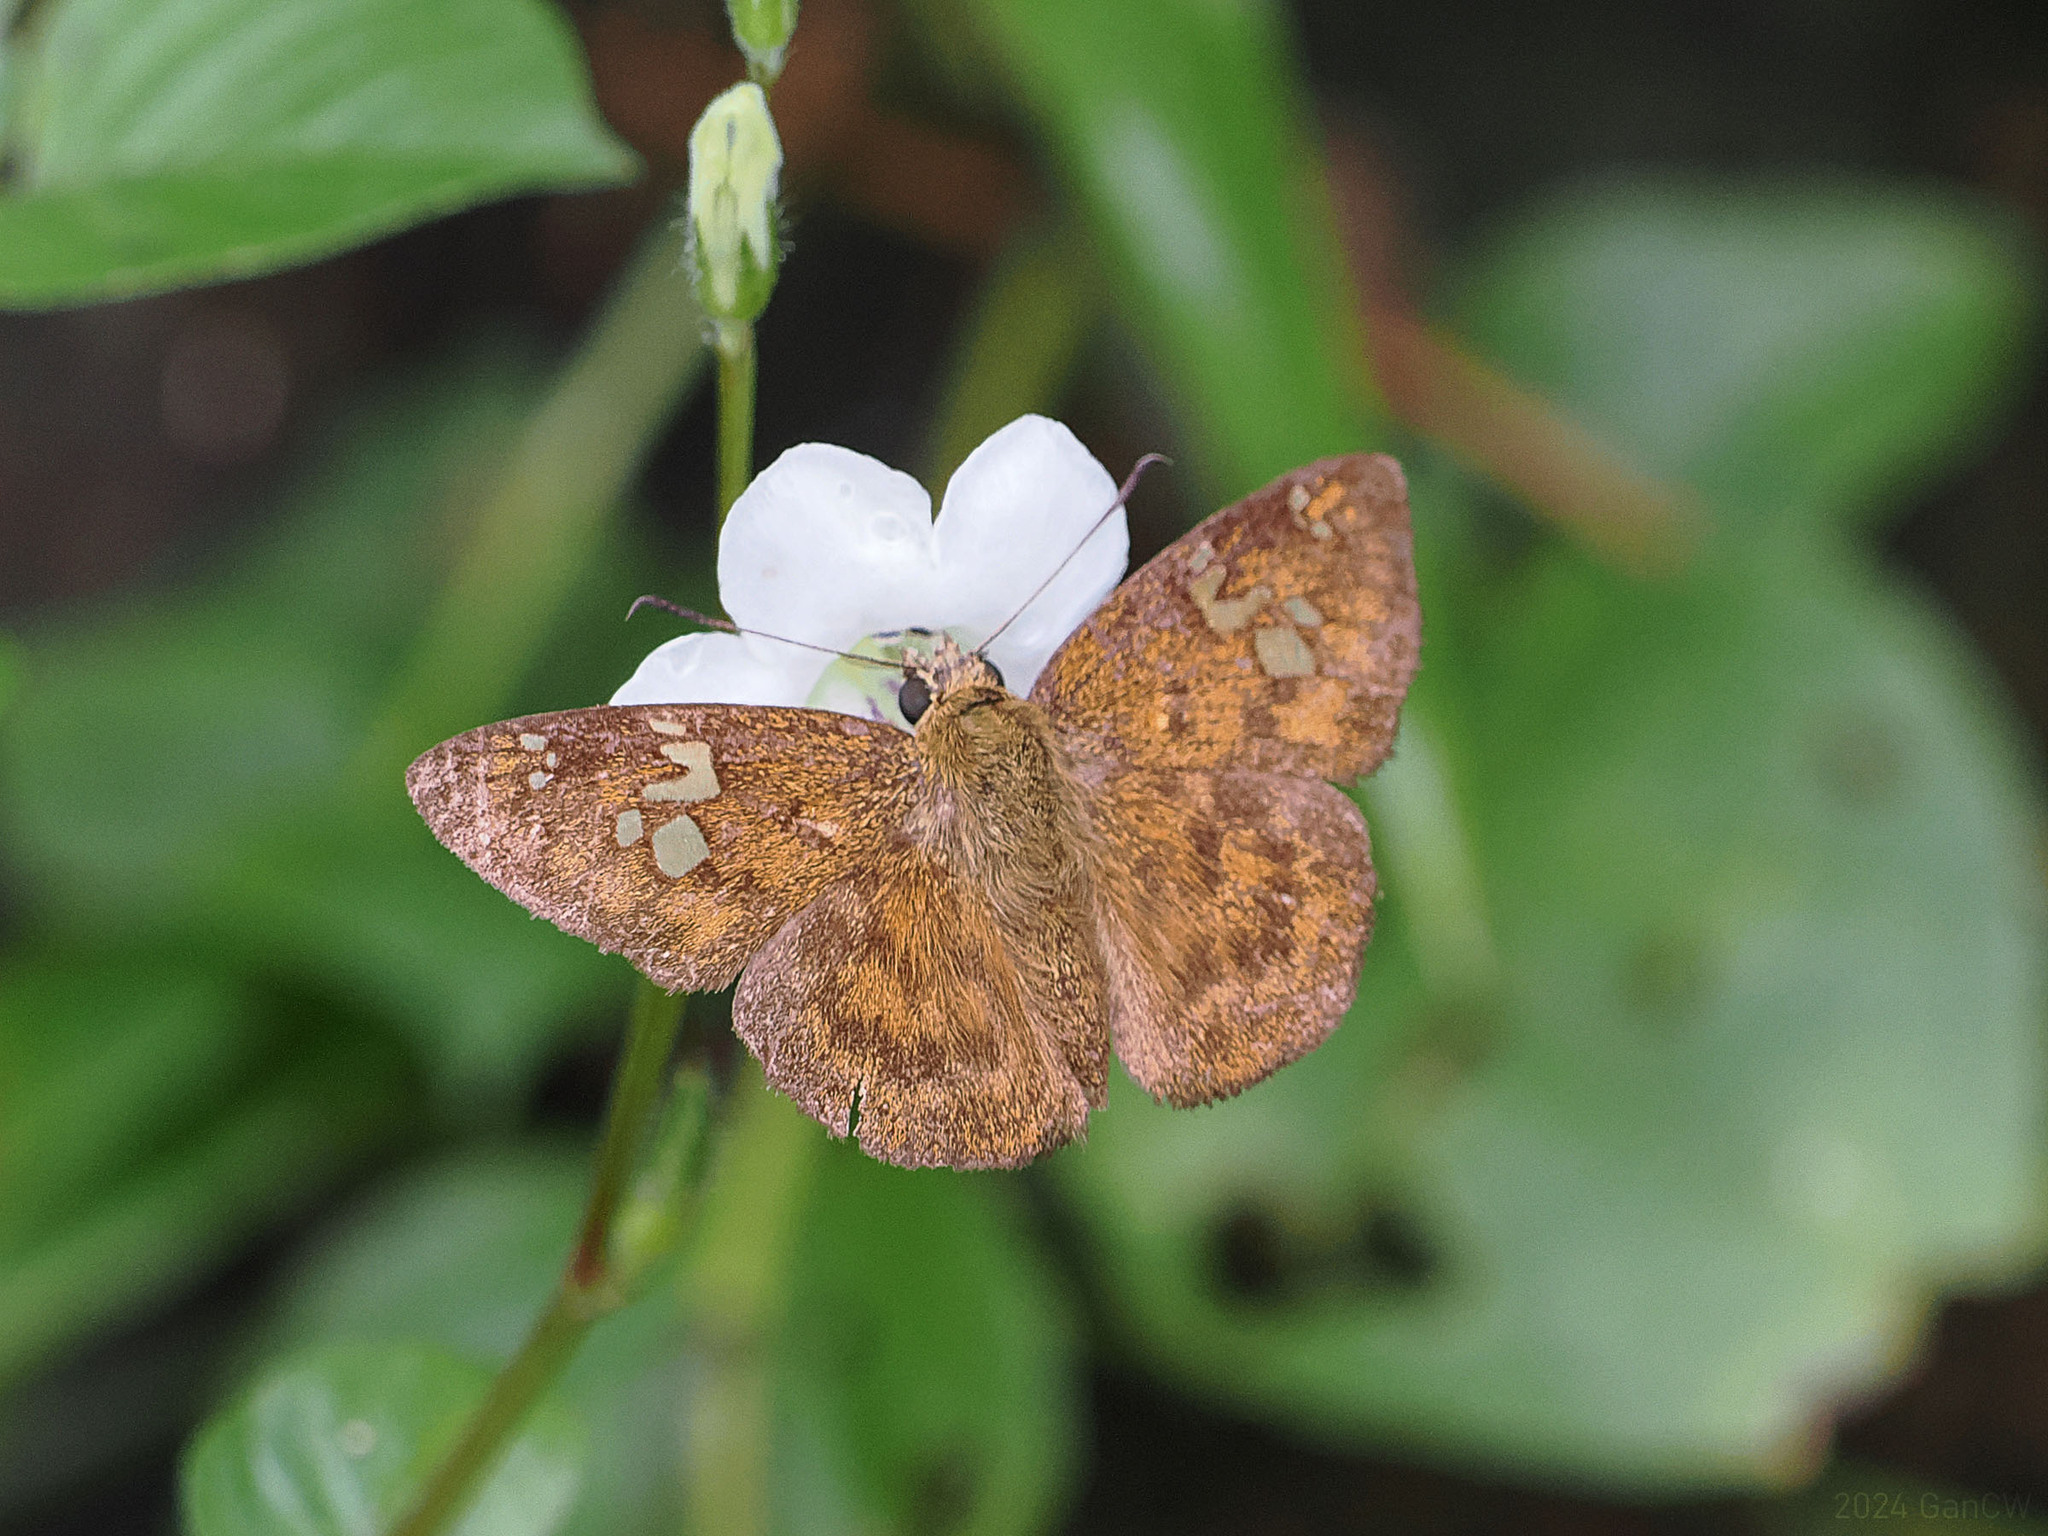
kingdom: Animalia
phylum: Arthropoda
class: Insecta
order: Lepidoptera
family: Hesperiidae
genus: Pseudocoladenia
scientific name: Pseudocoladenia
